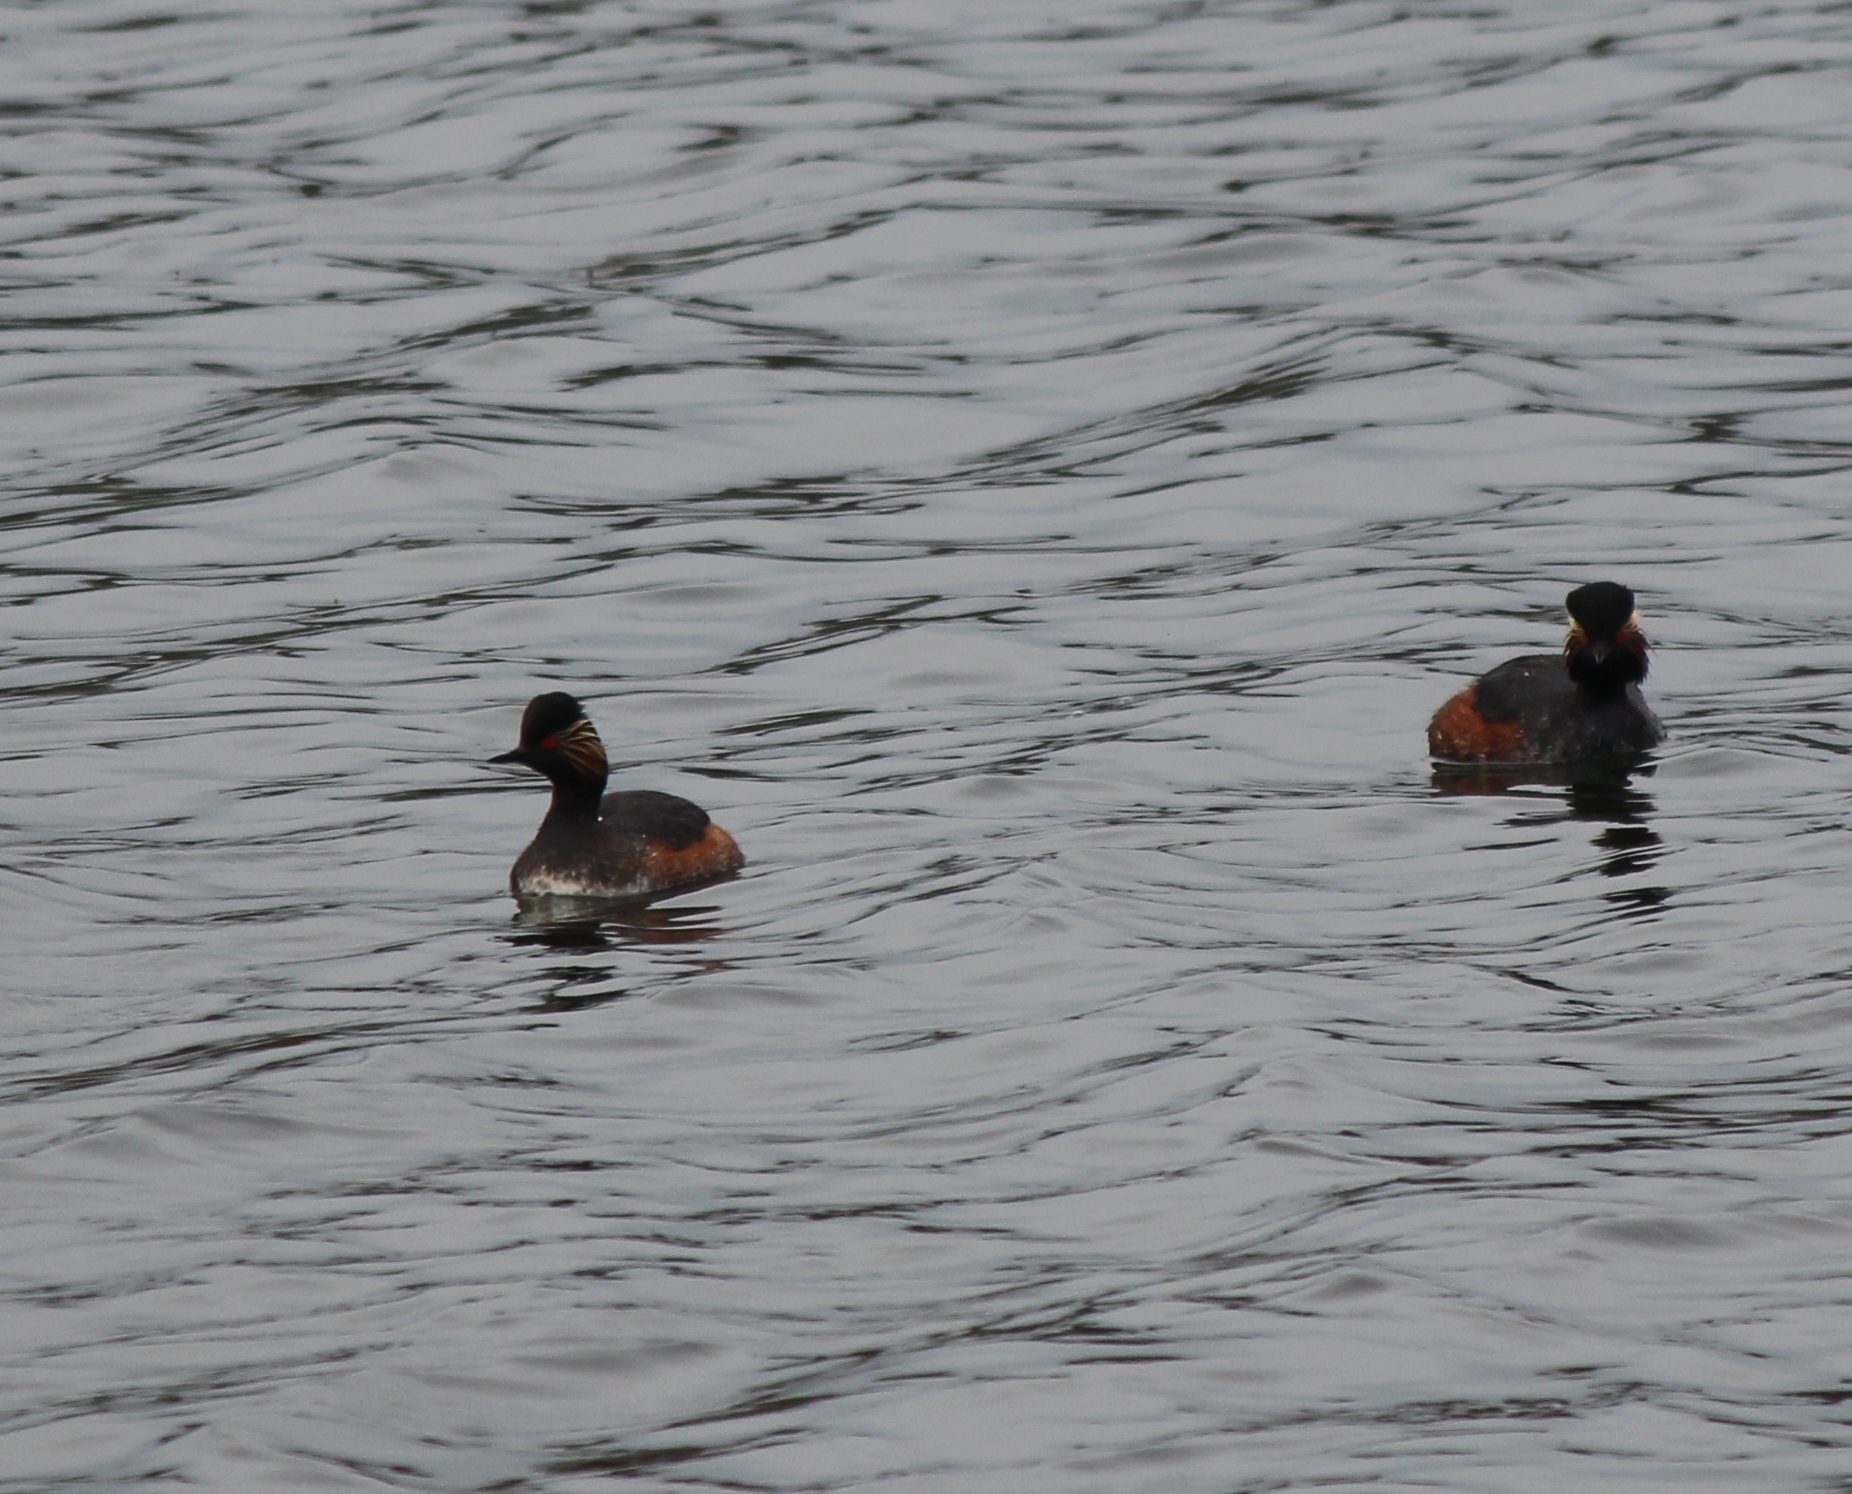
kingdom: Animalia
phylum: Chordata
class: Aves
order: Podicipediformes
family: Podicipedidae
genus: Podiceps
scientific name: Podiceps nigricollis
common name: Black-necked grebe
